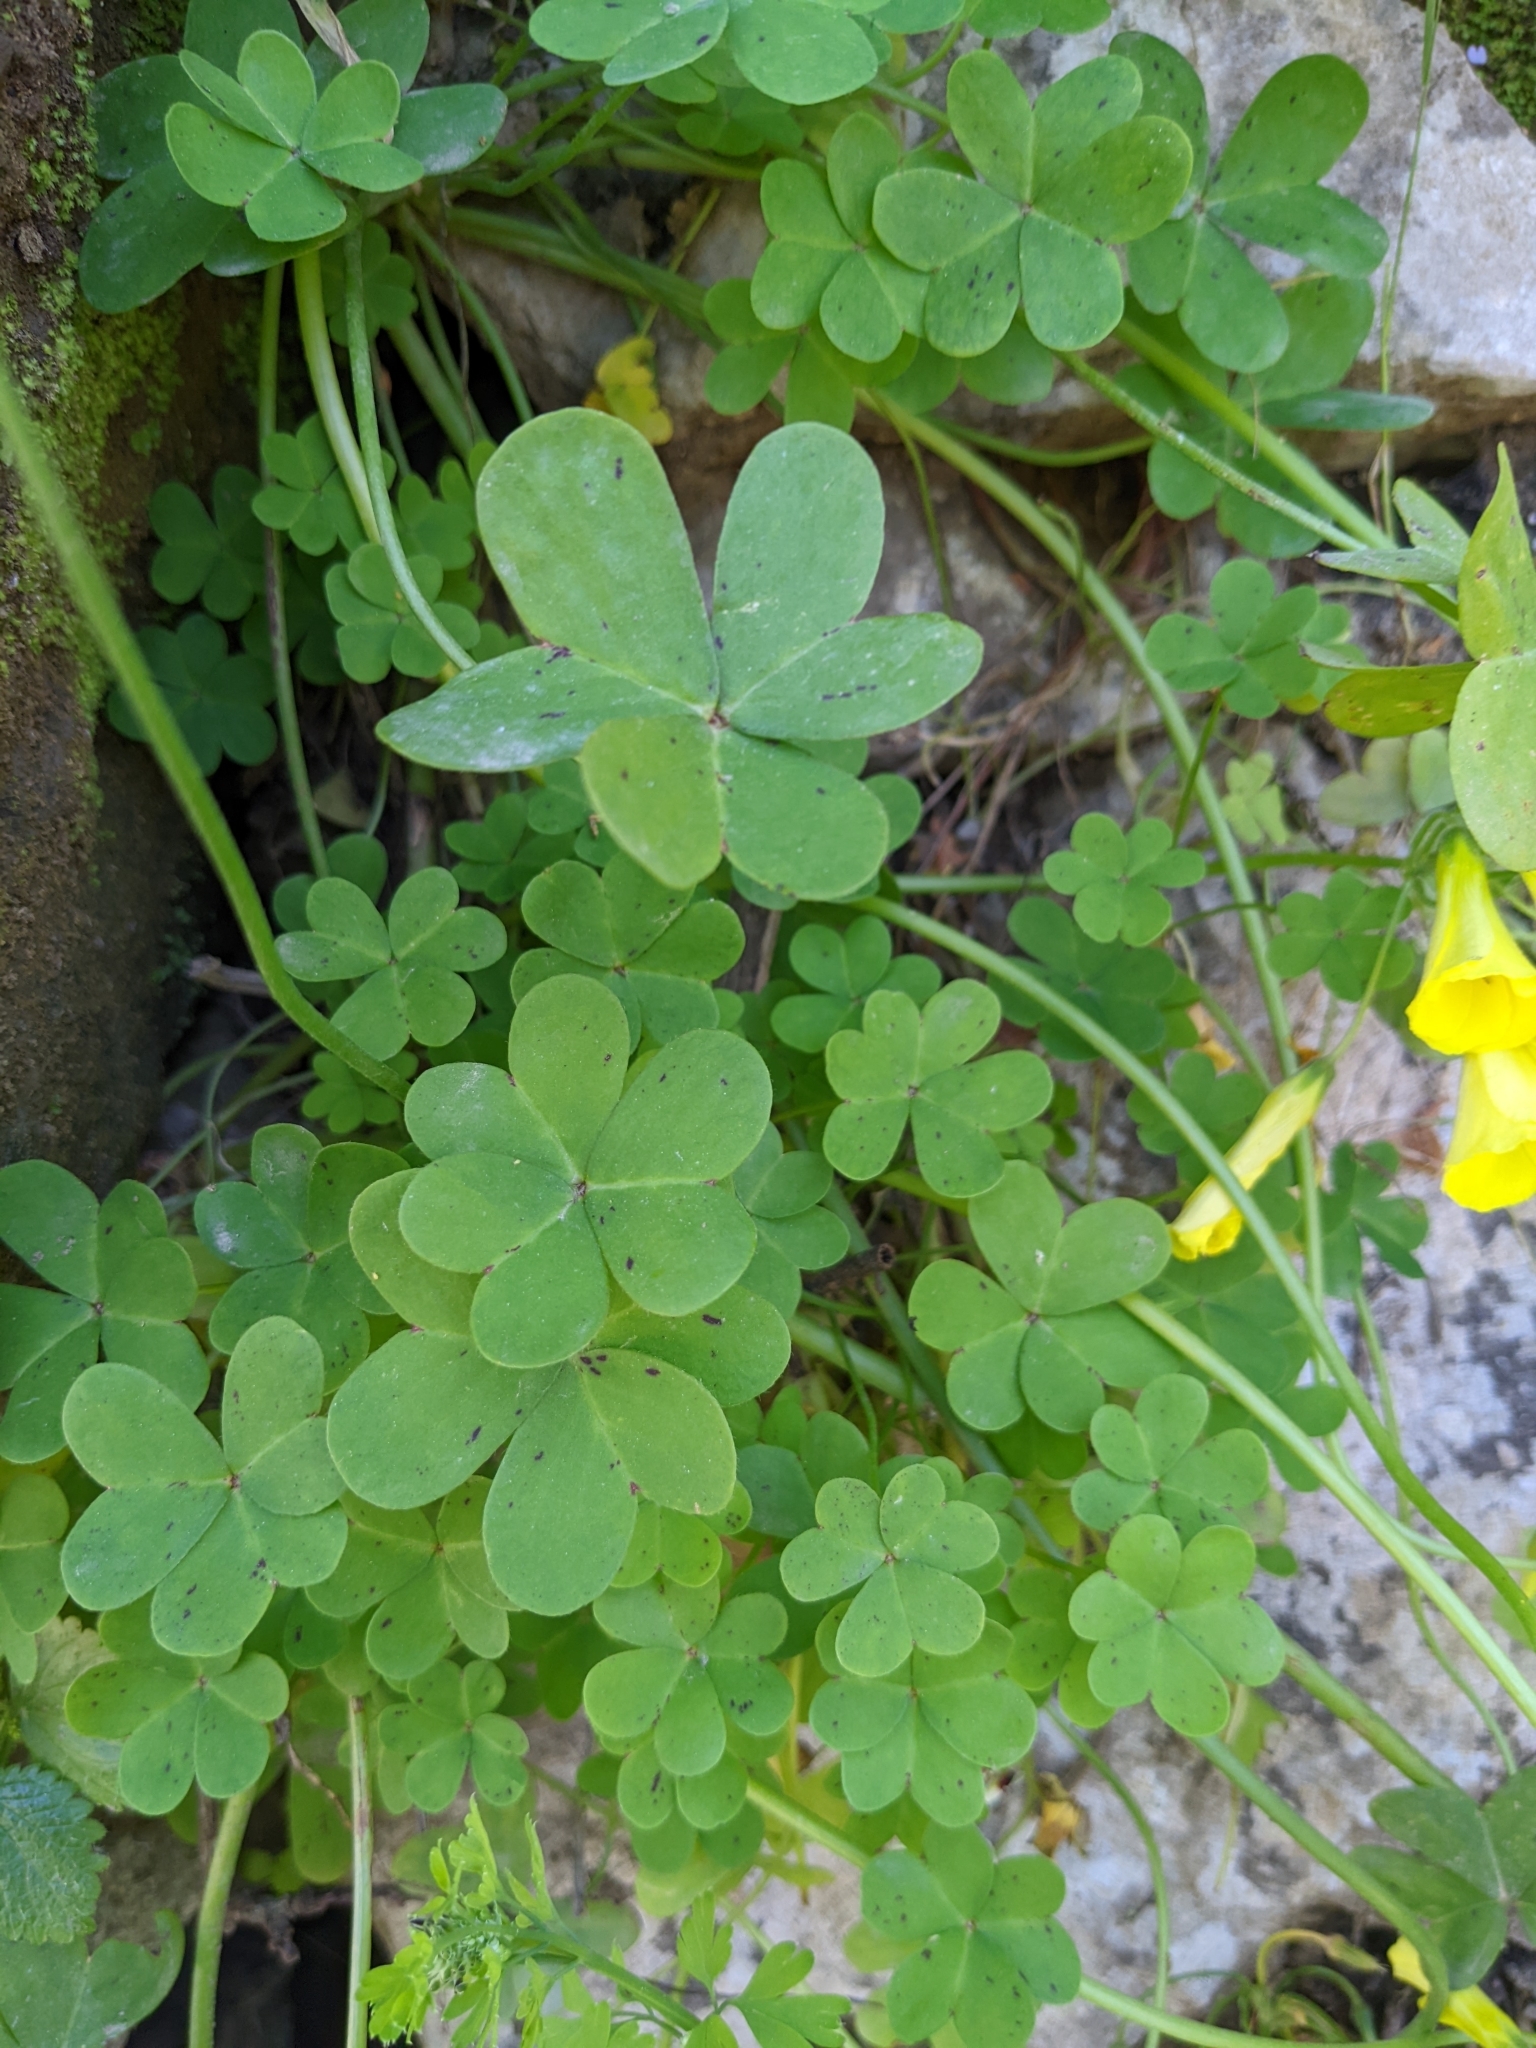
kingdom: Plantae
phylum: Tracheophyta
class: Magnoliopsida
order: Oxalidales
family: Oxalidaceae
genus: Oxalis
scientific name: Oxalis pes-caprae
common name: Bermuda-buttercup
